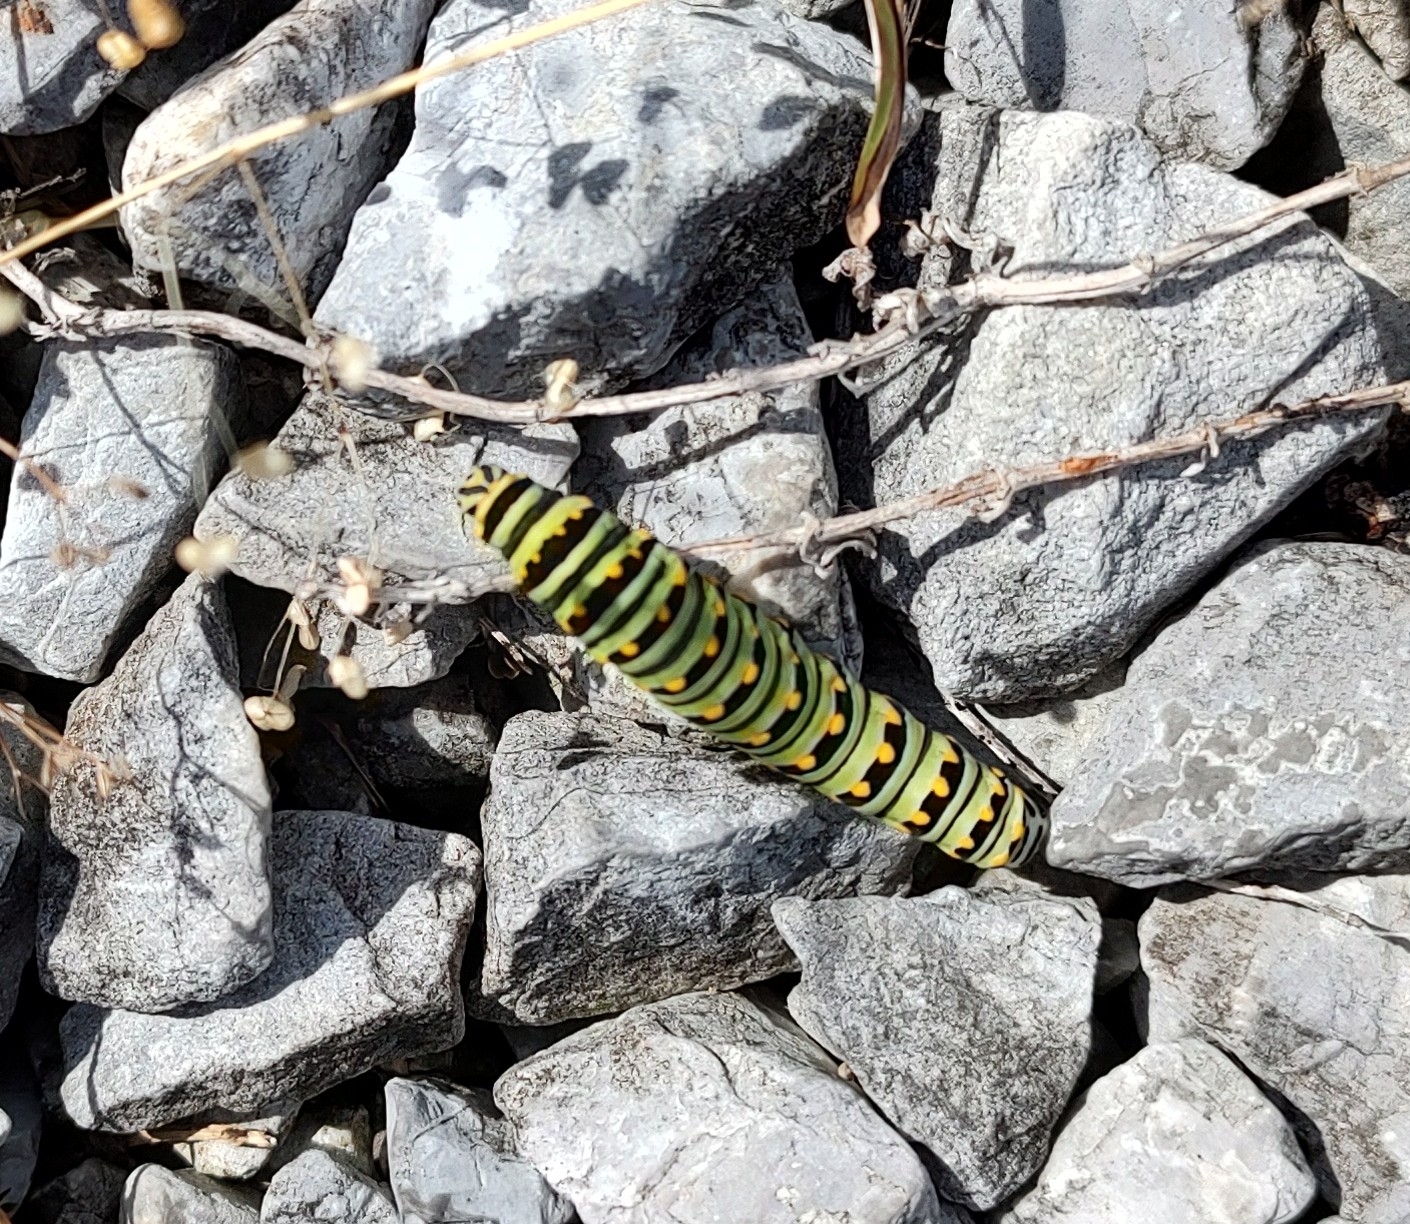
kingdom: Animalia
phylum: Arthropoda
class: Insecta
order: Lepidoptera
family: Papilionidae
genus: Papilio
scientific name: Papilio polyxenes
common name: Black swallowtail
